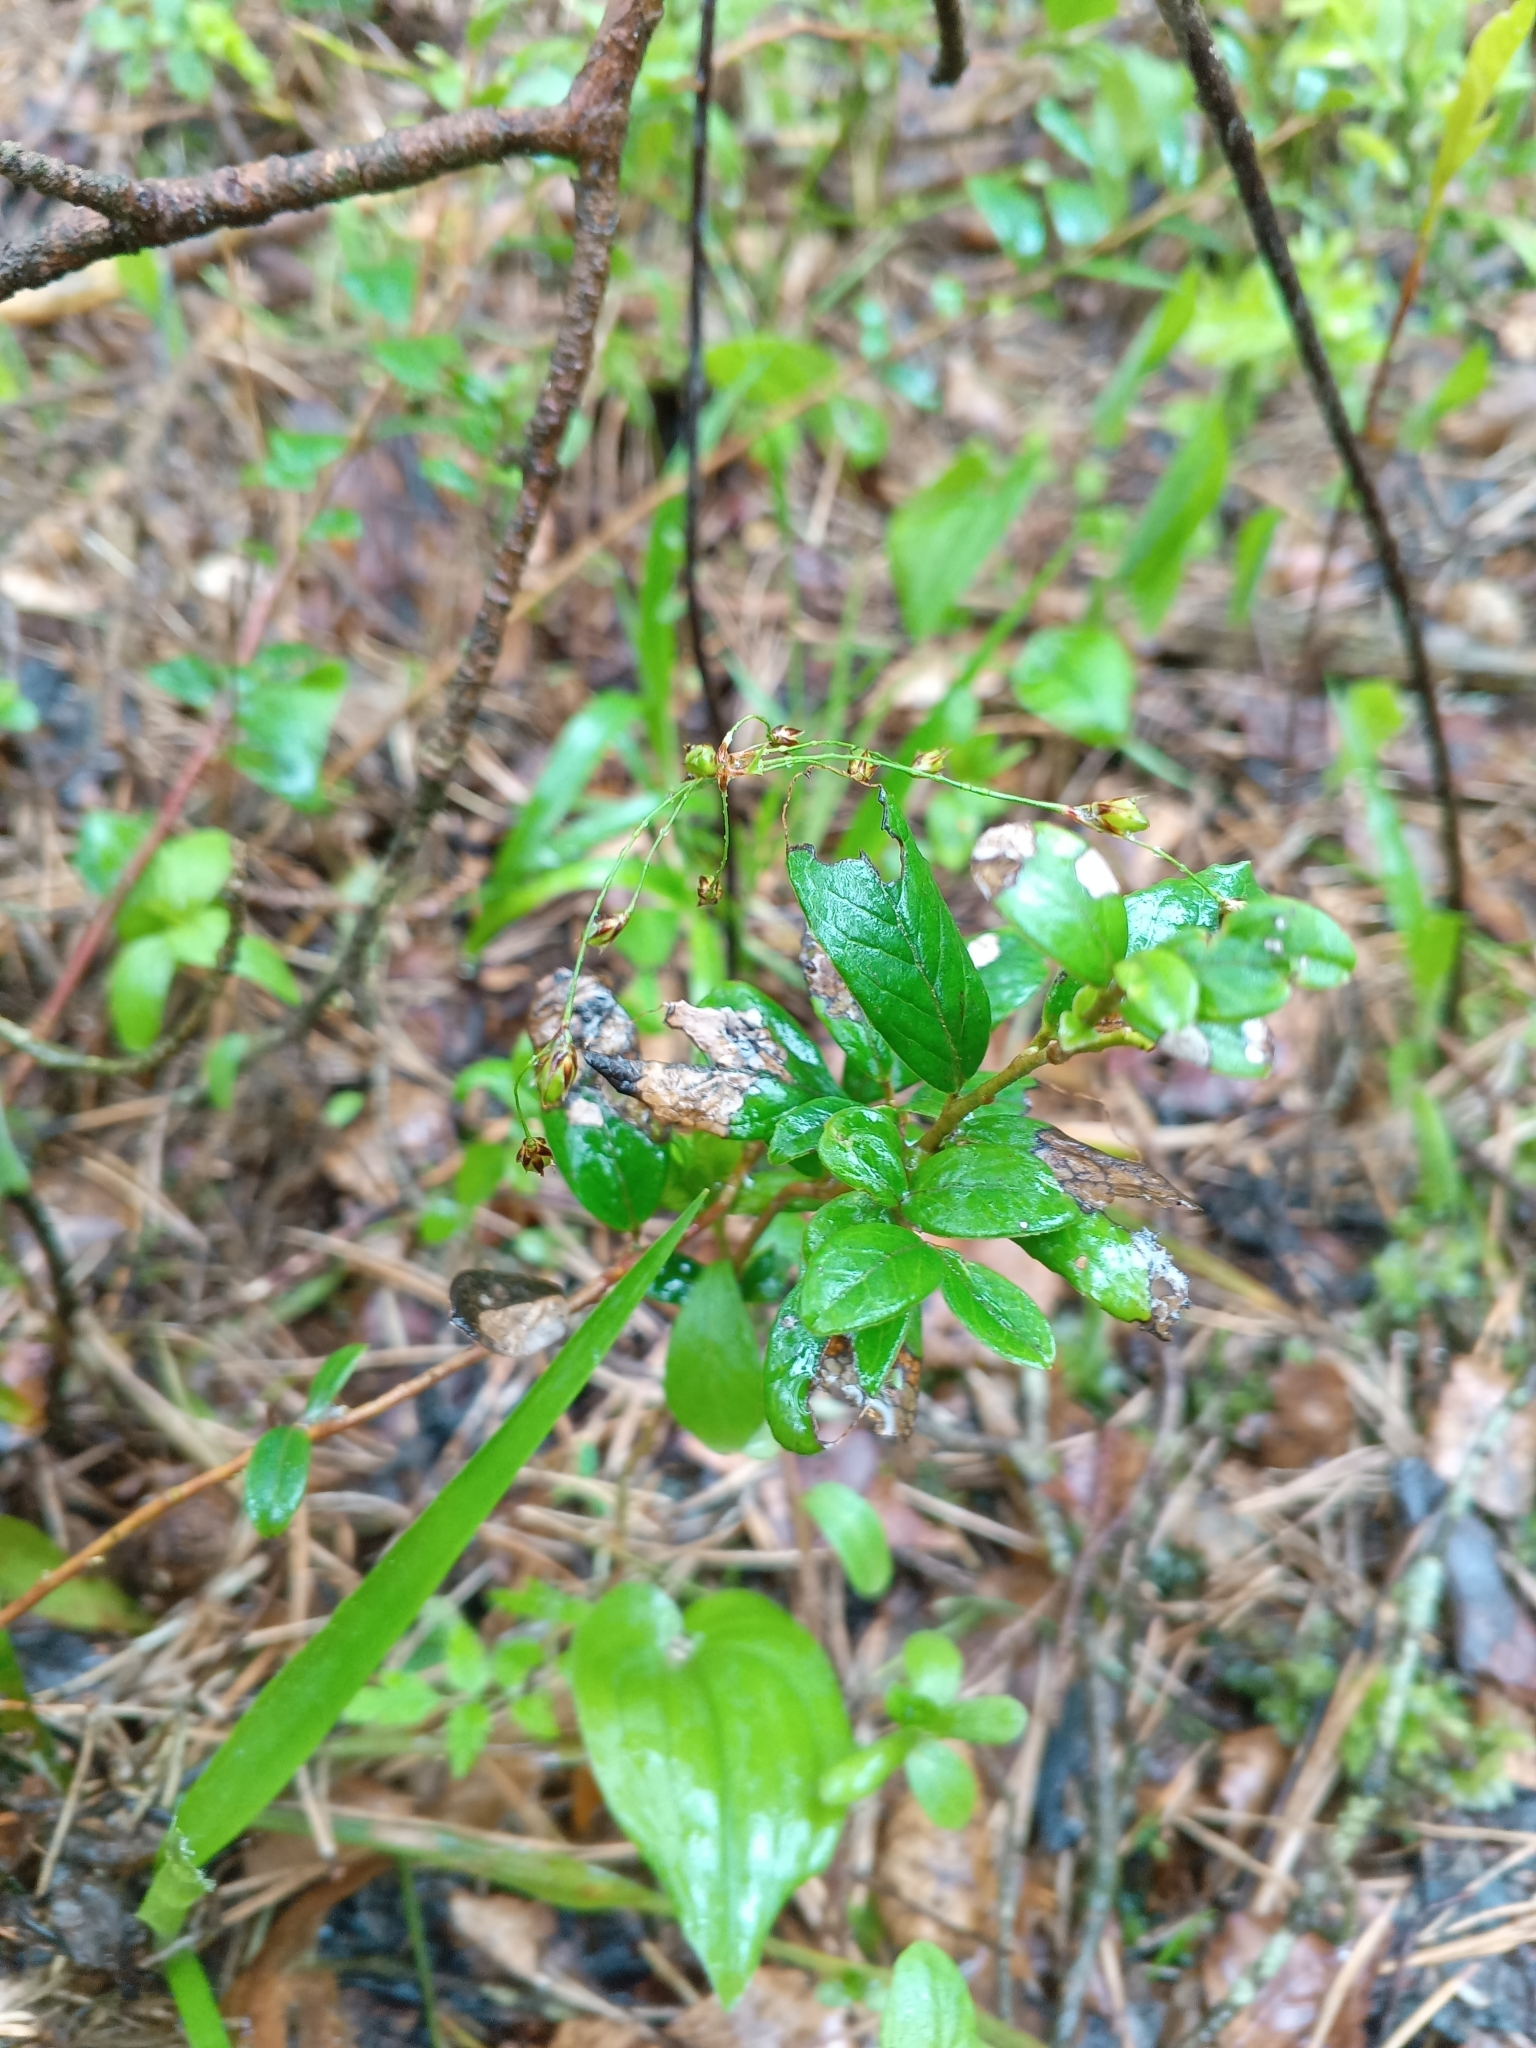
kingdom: Plantae
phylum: Tracheophyta
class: Magnoliopsida
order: Ericales
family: Ericaceae
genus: Vaccinium
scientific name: Vaccinium vitis-idaea
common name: Cowberry
